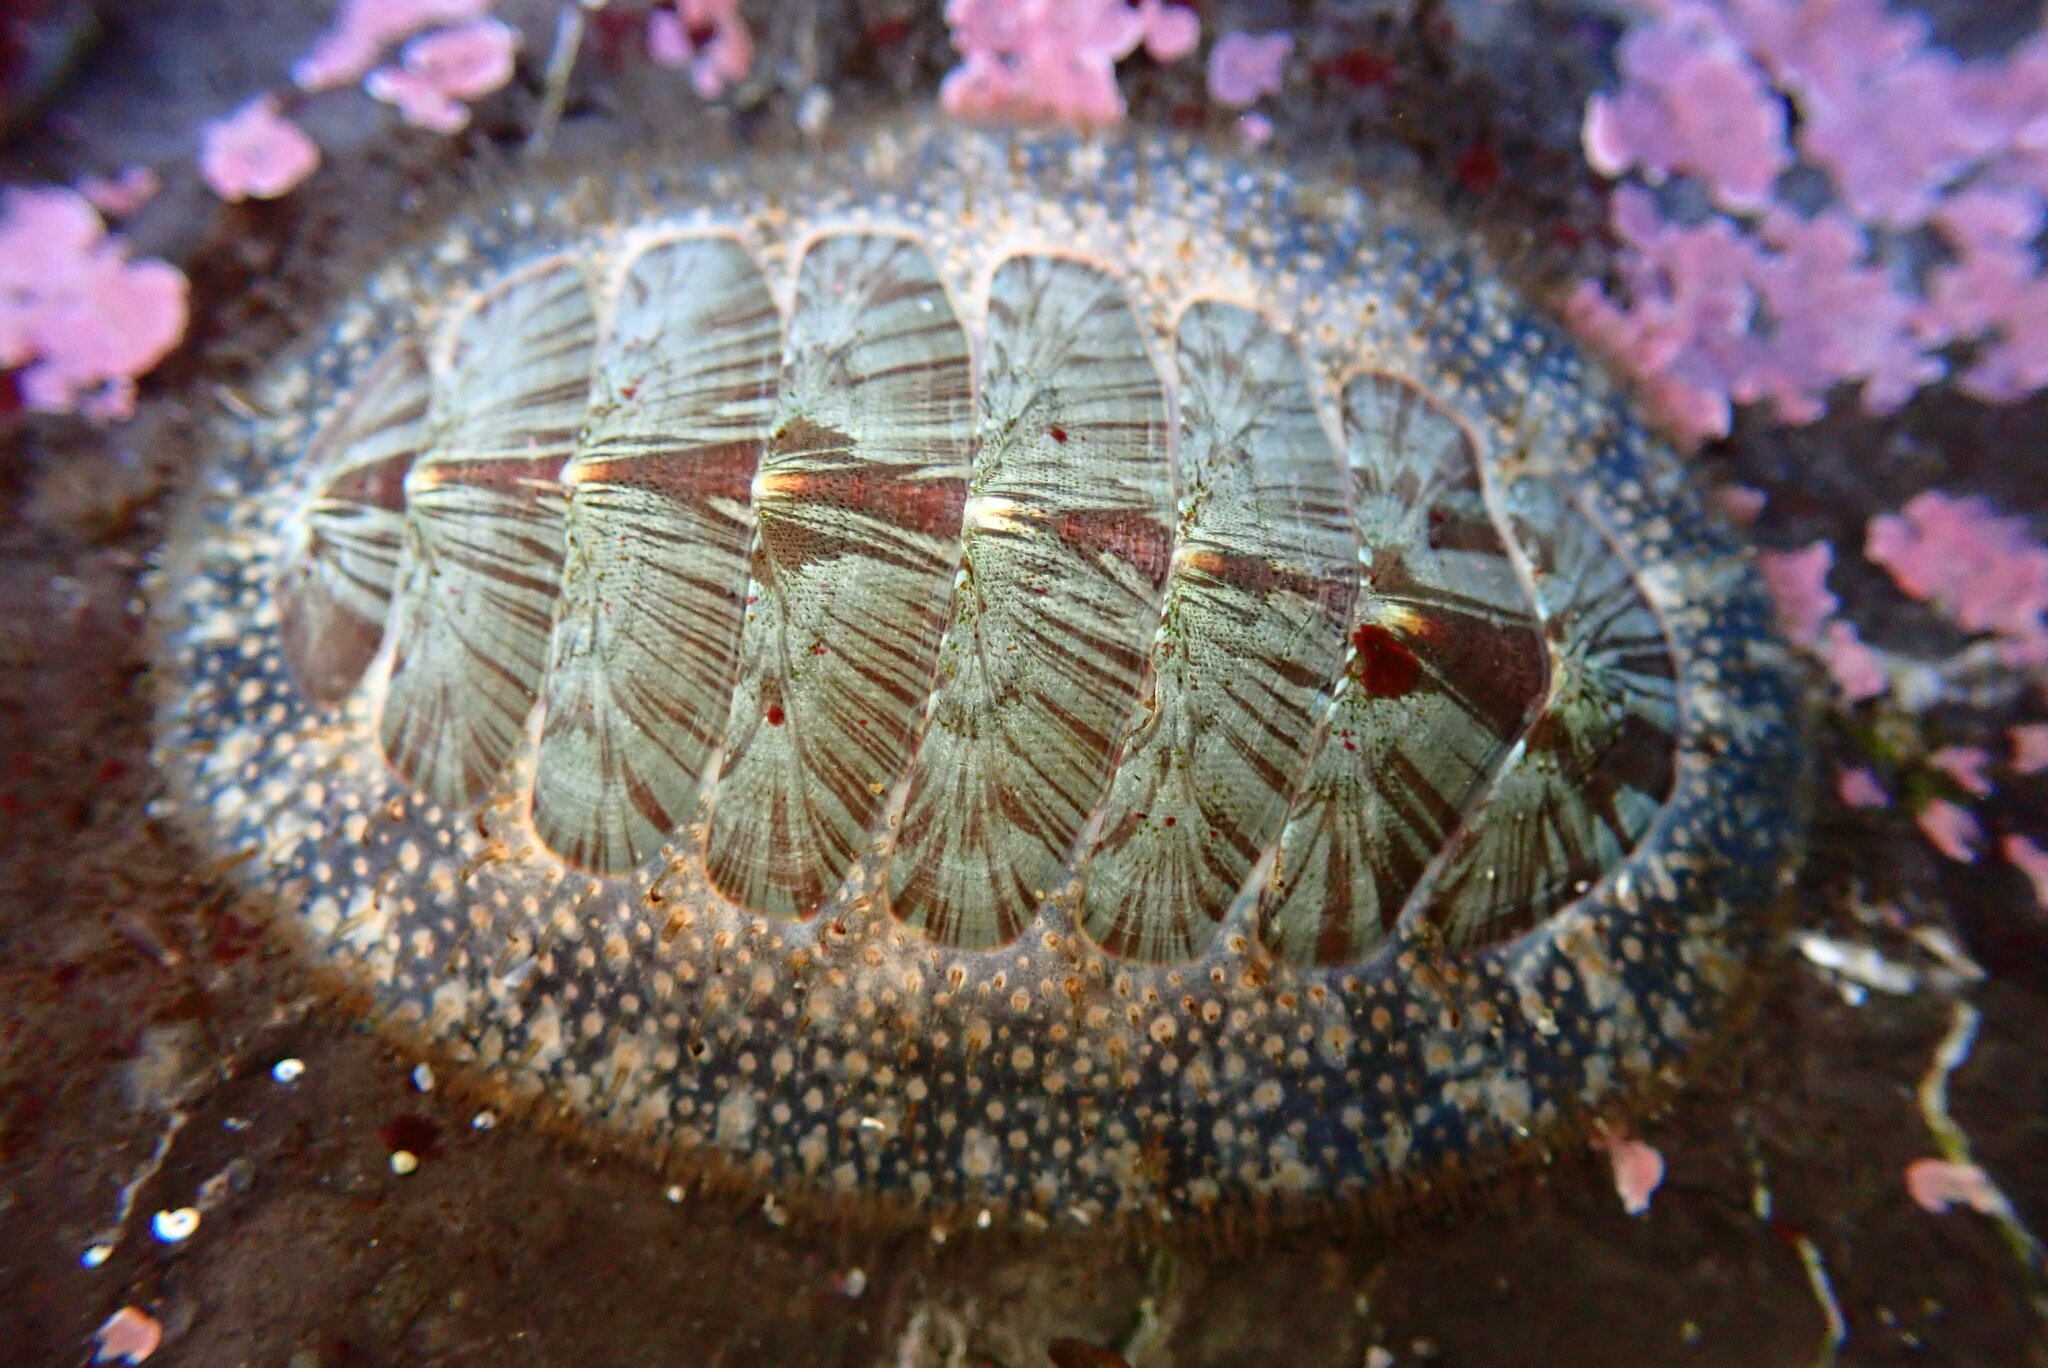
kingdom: Animalia
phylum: Mollusca
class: Polyplacophora
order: Chitonida
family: Mopaliidae
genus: Mopalia
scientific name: Mopalia lignosa
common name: Woody chiton
